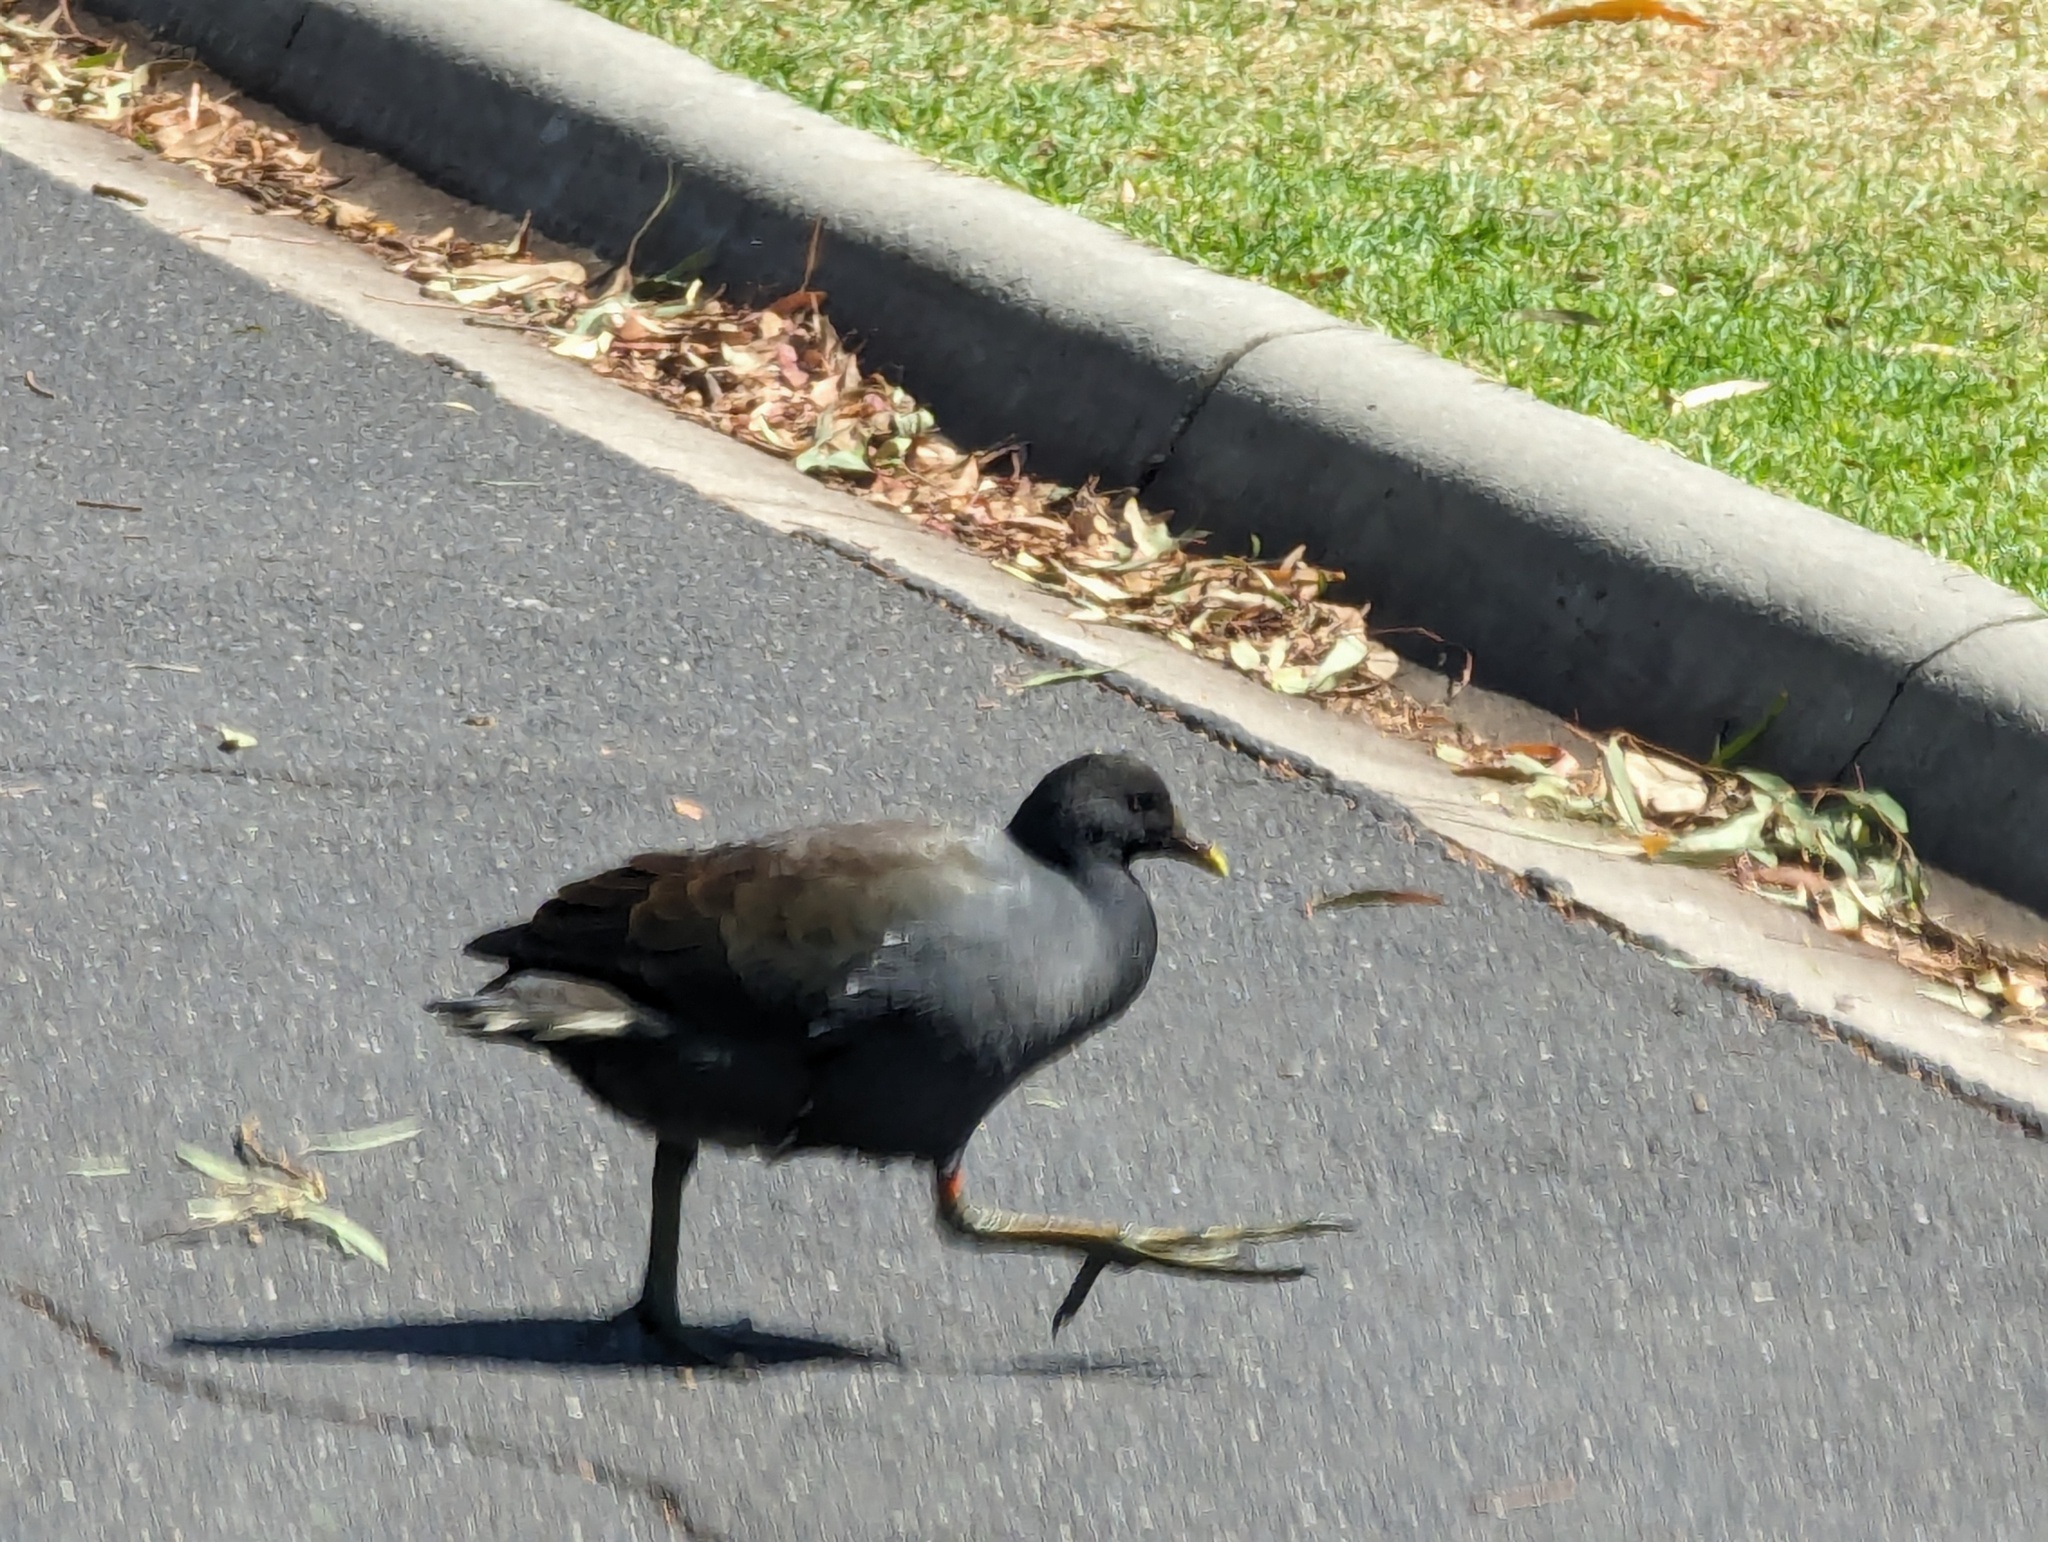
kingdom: Animalia
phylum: Chordata
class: Aves
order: Gruiformes
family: Rallidae
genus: Gallinula
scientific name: Gallinula tenebrosa
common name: Dusky moorhen
